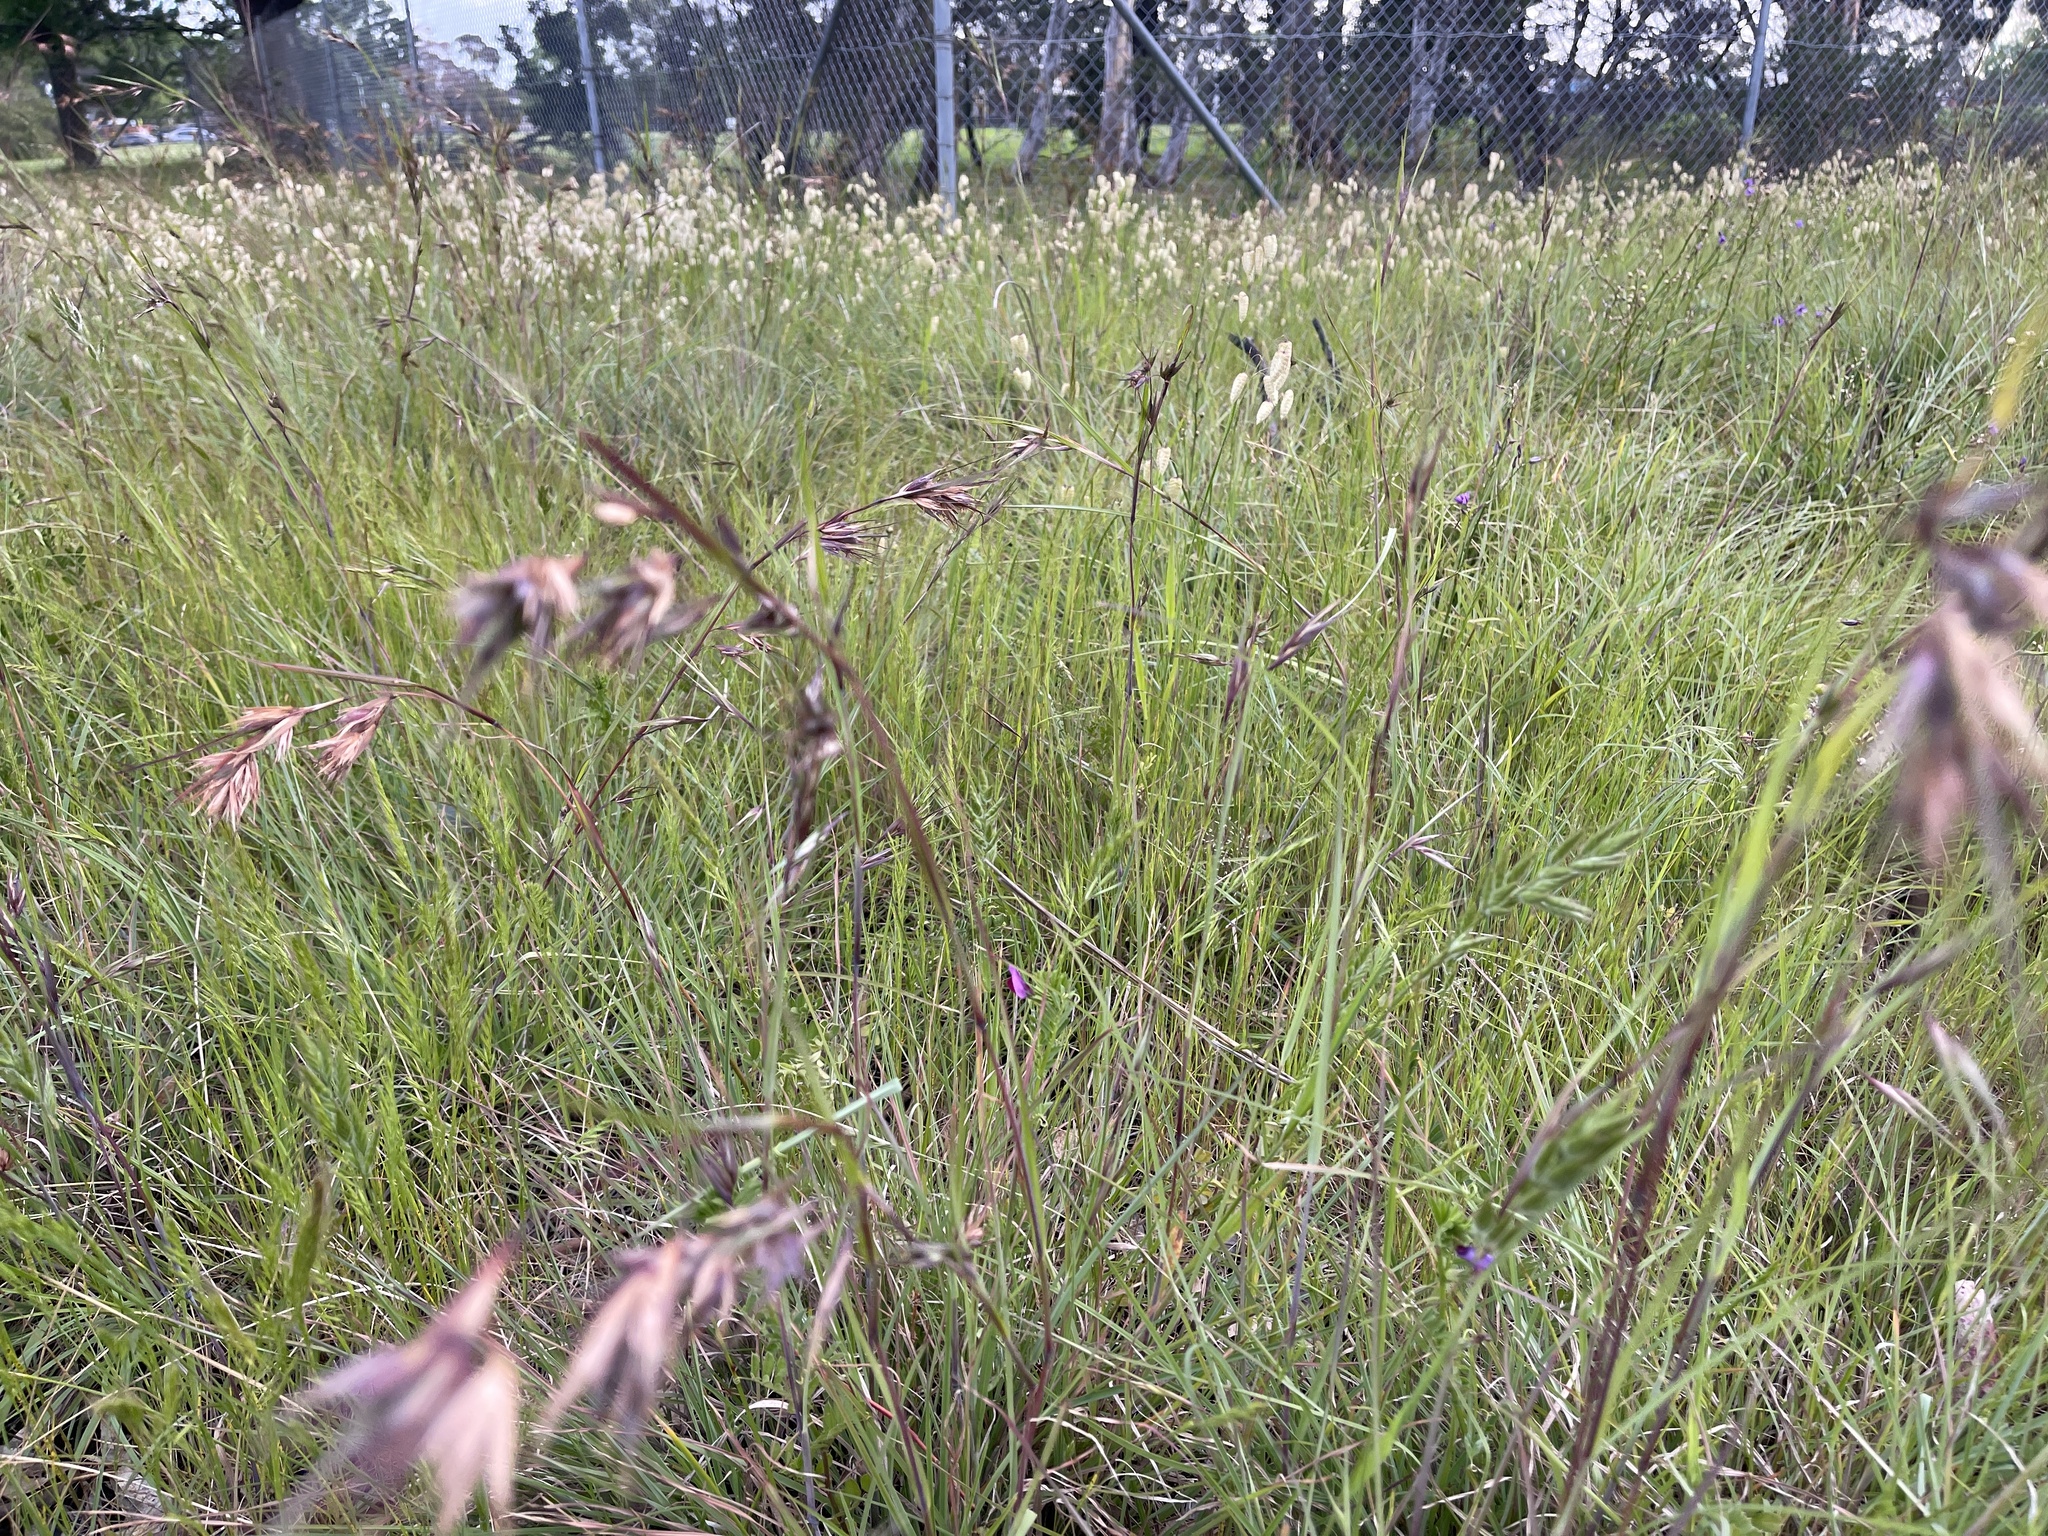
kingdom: Plantae
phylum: Tracheophyta
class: Liliopsida
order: Poales
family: Poaceae
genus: Themeda
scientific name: Themeda triandra
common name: Kangaroo grass
